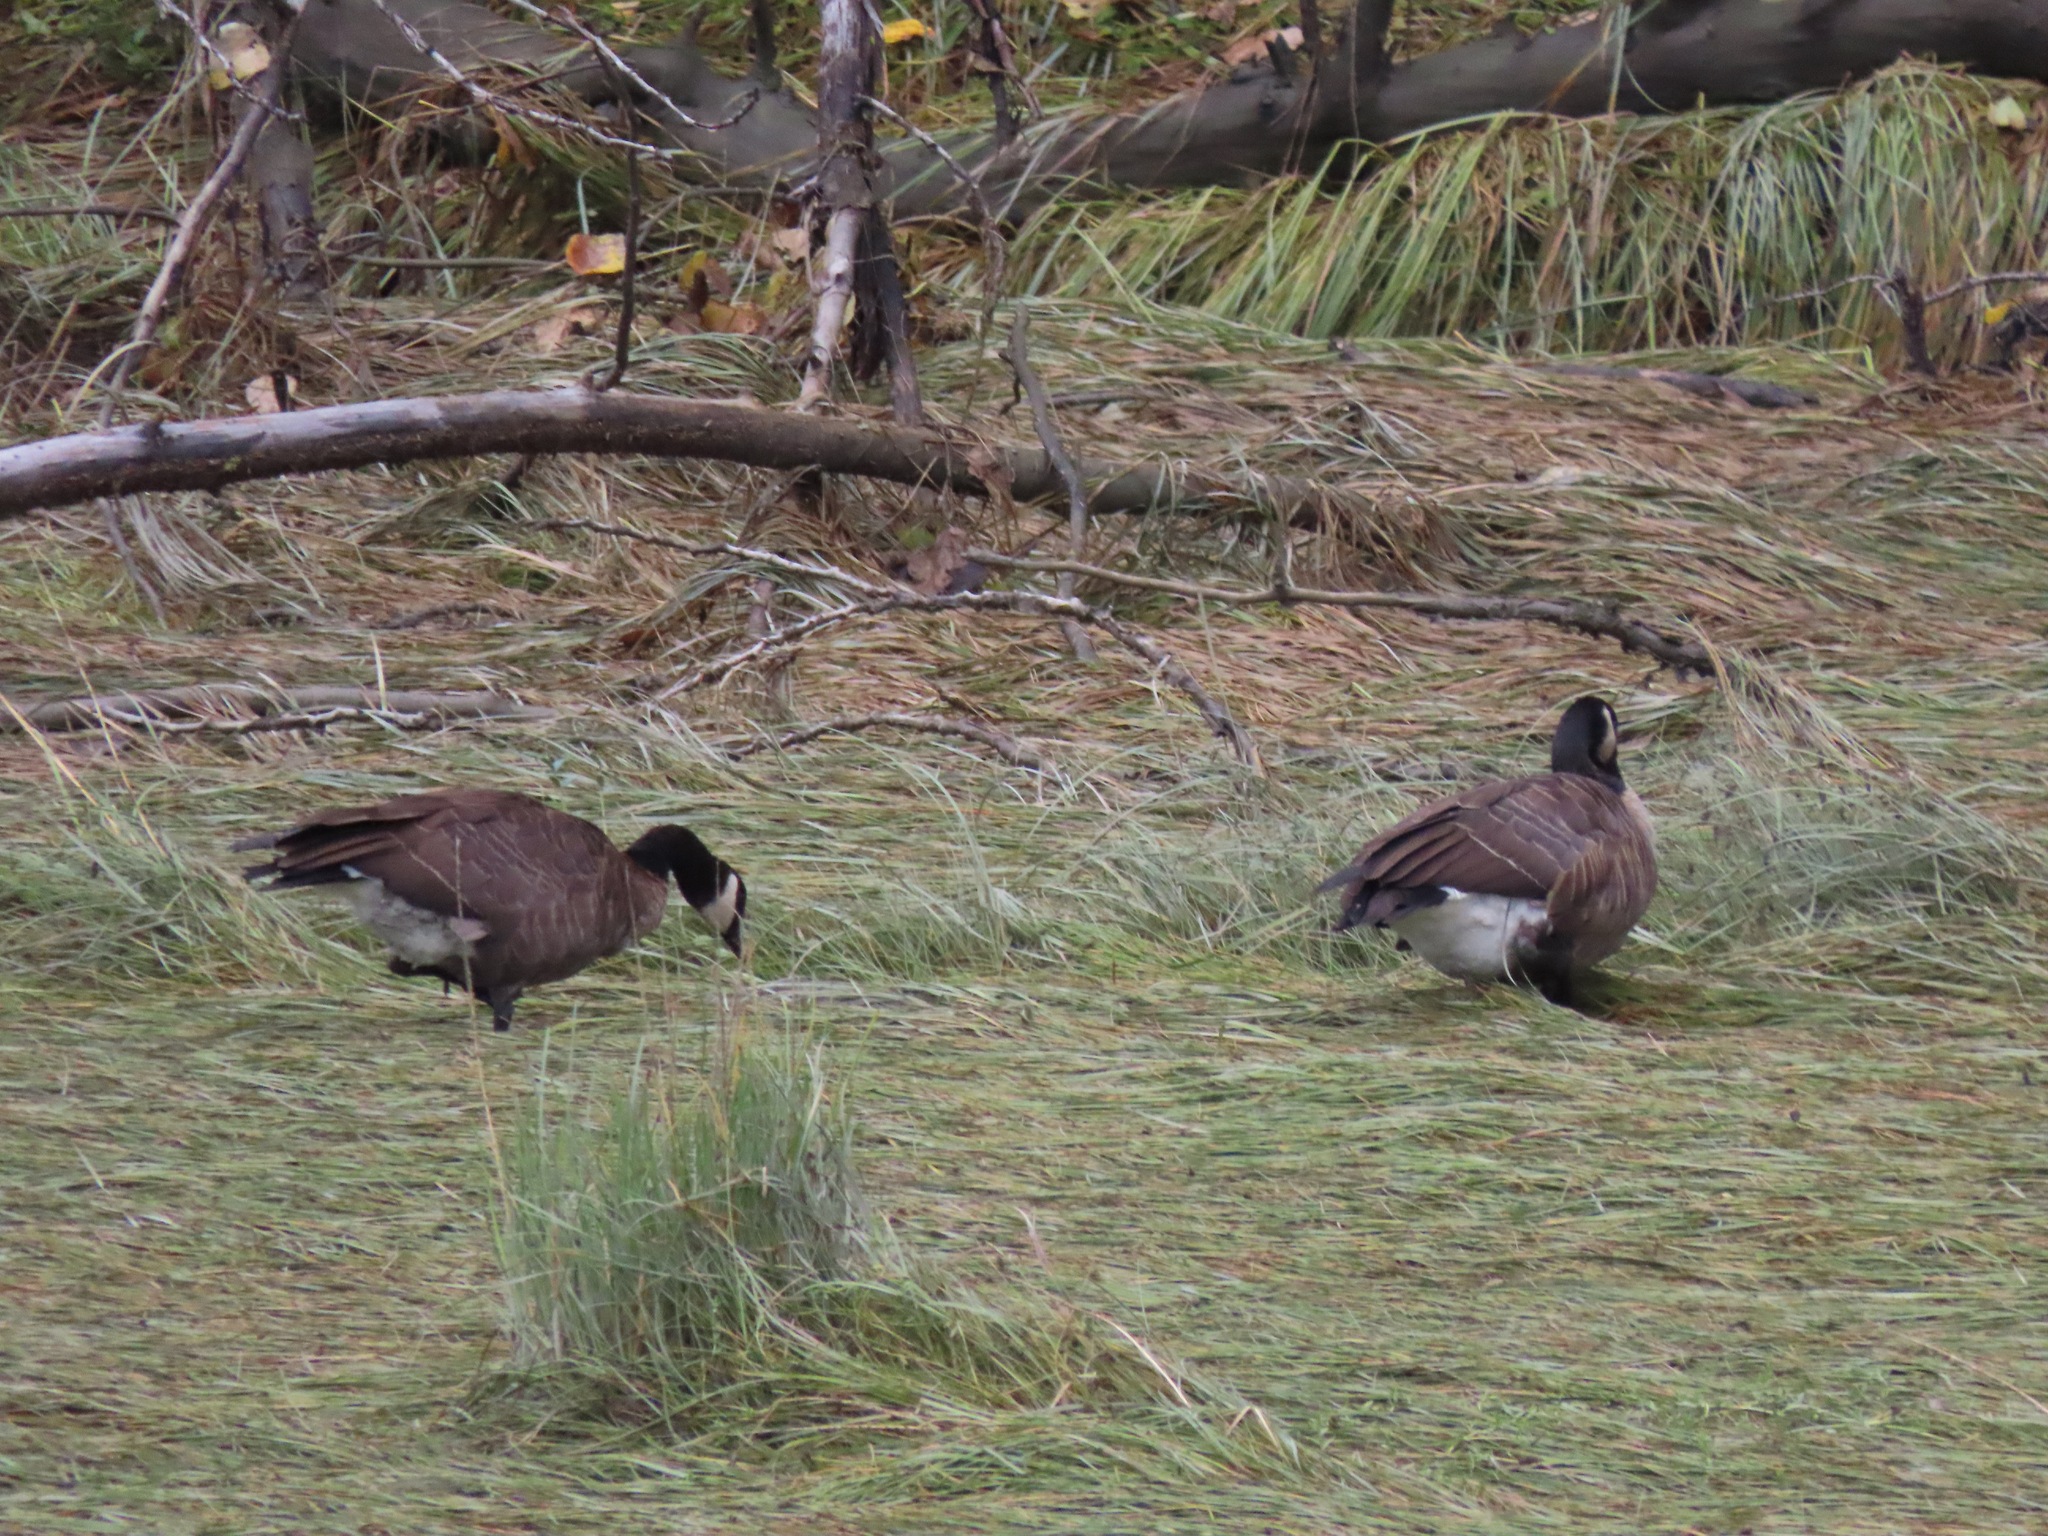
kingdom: Animalia
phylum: Chordata
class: Aves
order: Anseriformes
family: Anatidae
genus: Branta
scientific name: Branta canadensis
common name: Canada goose
